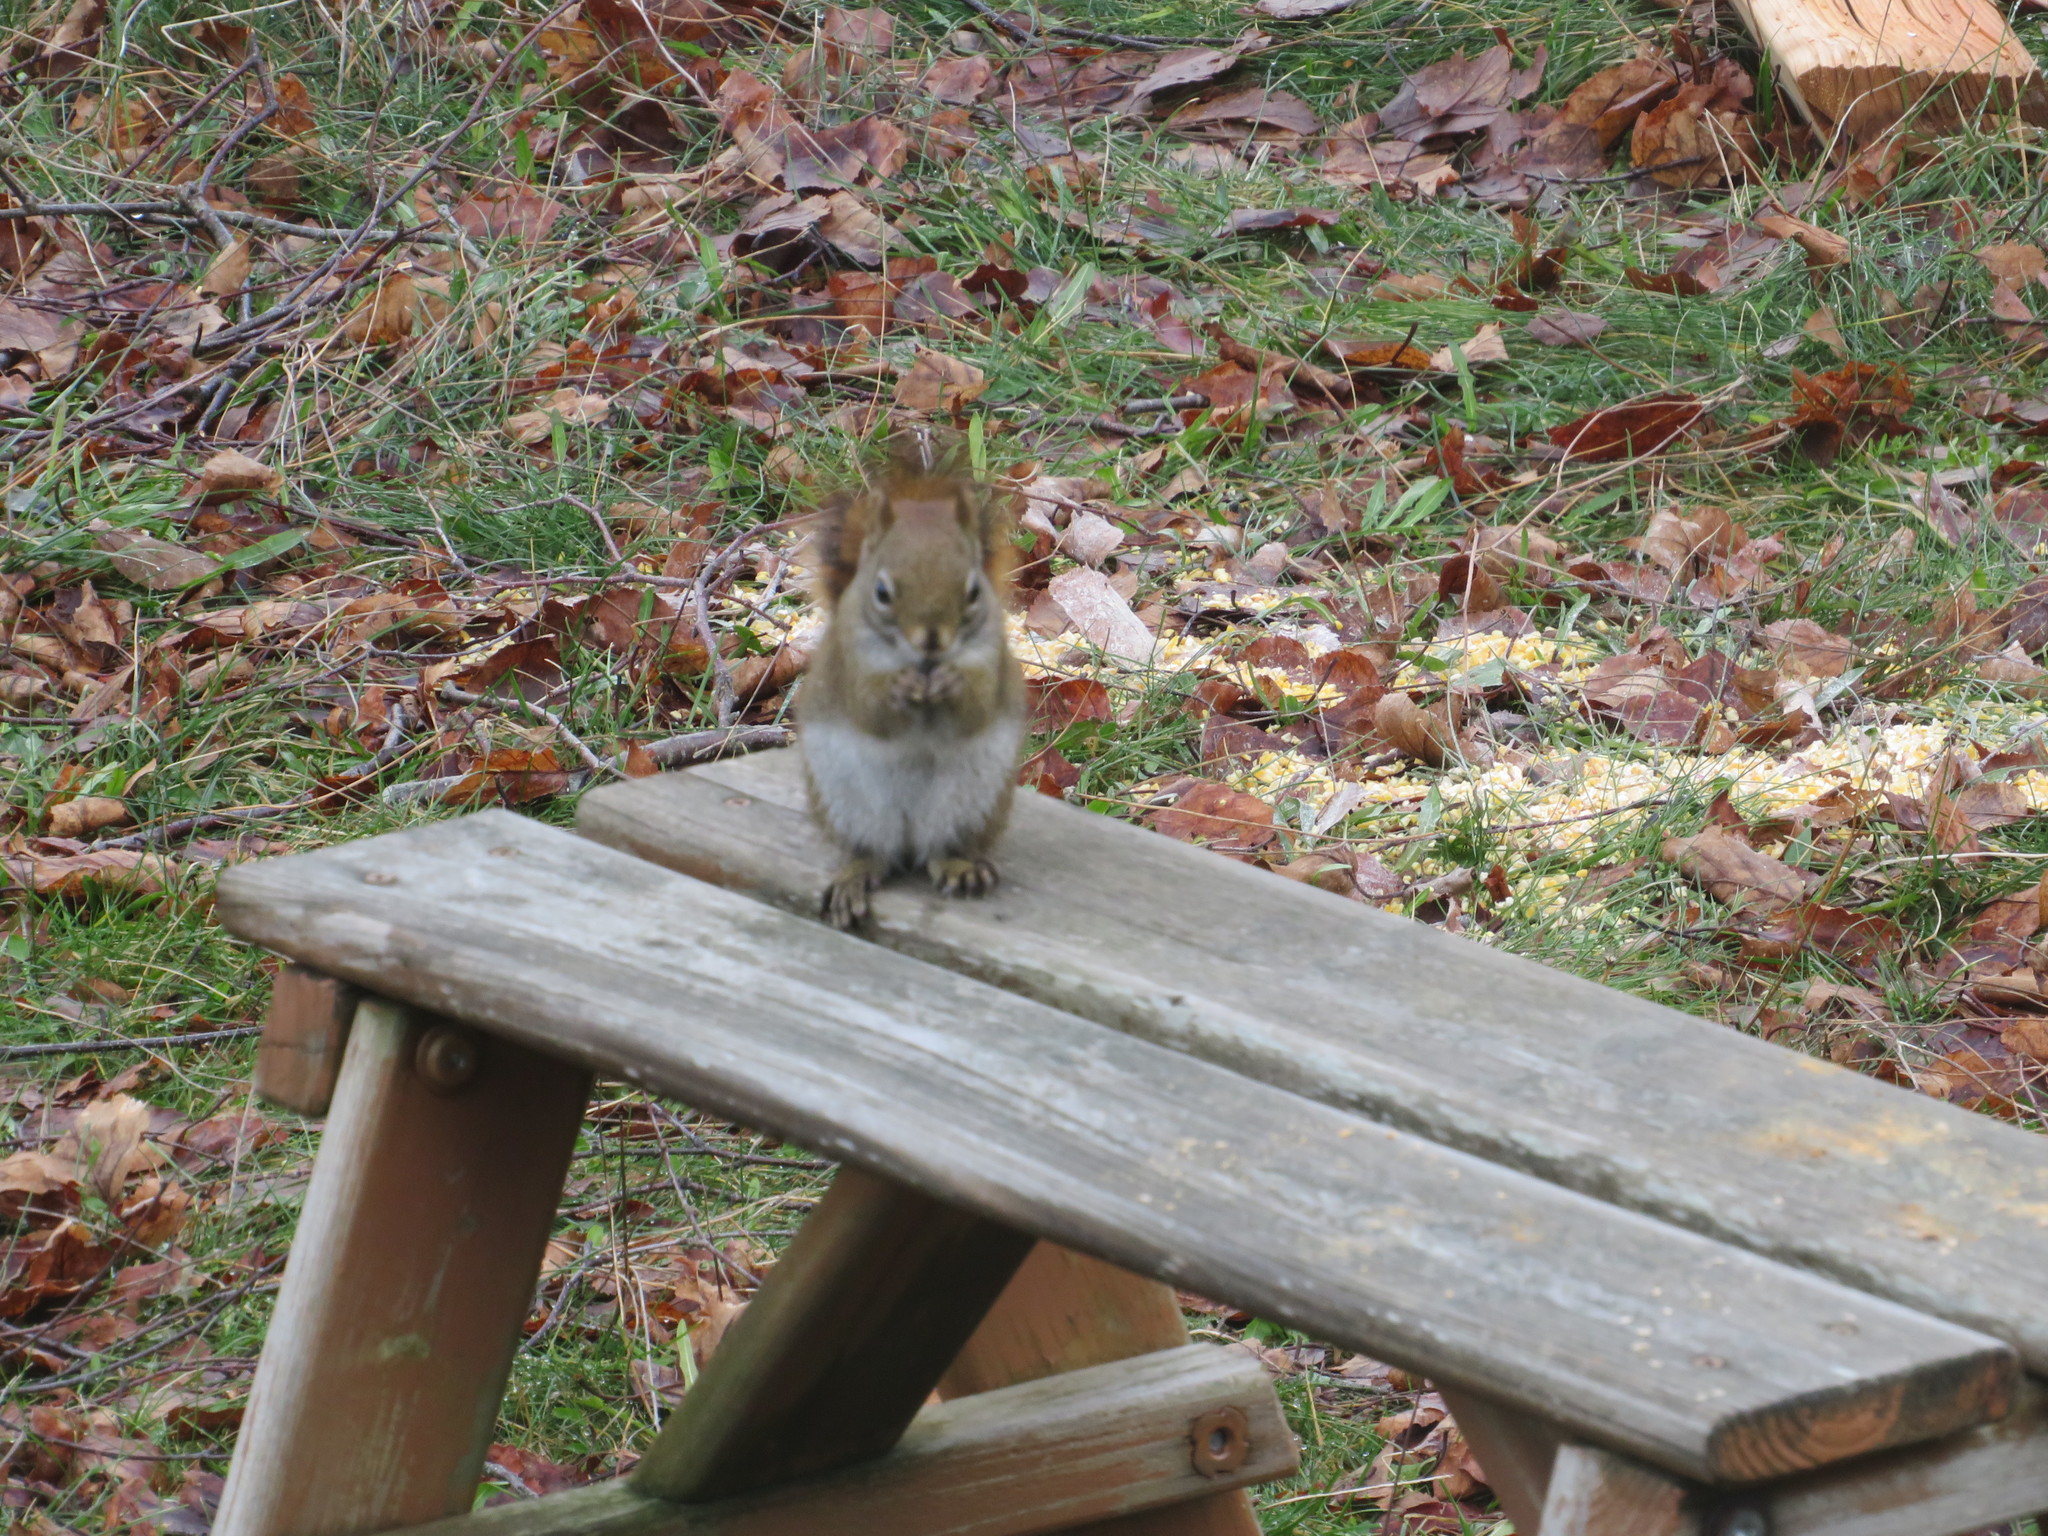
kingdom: Animalia
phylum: Chordata
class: Mammalia
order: Rodentia
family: Sciuridae
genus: Tamiasciurus
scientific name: Tamiasciurus hudsonicus
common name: Red squirrel
